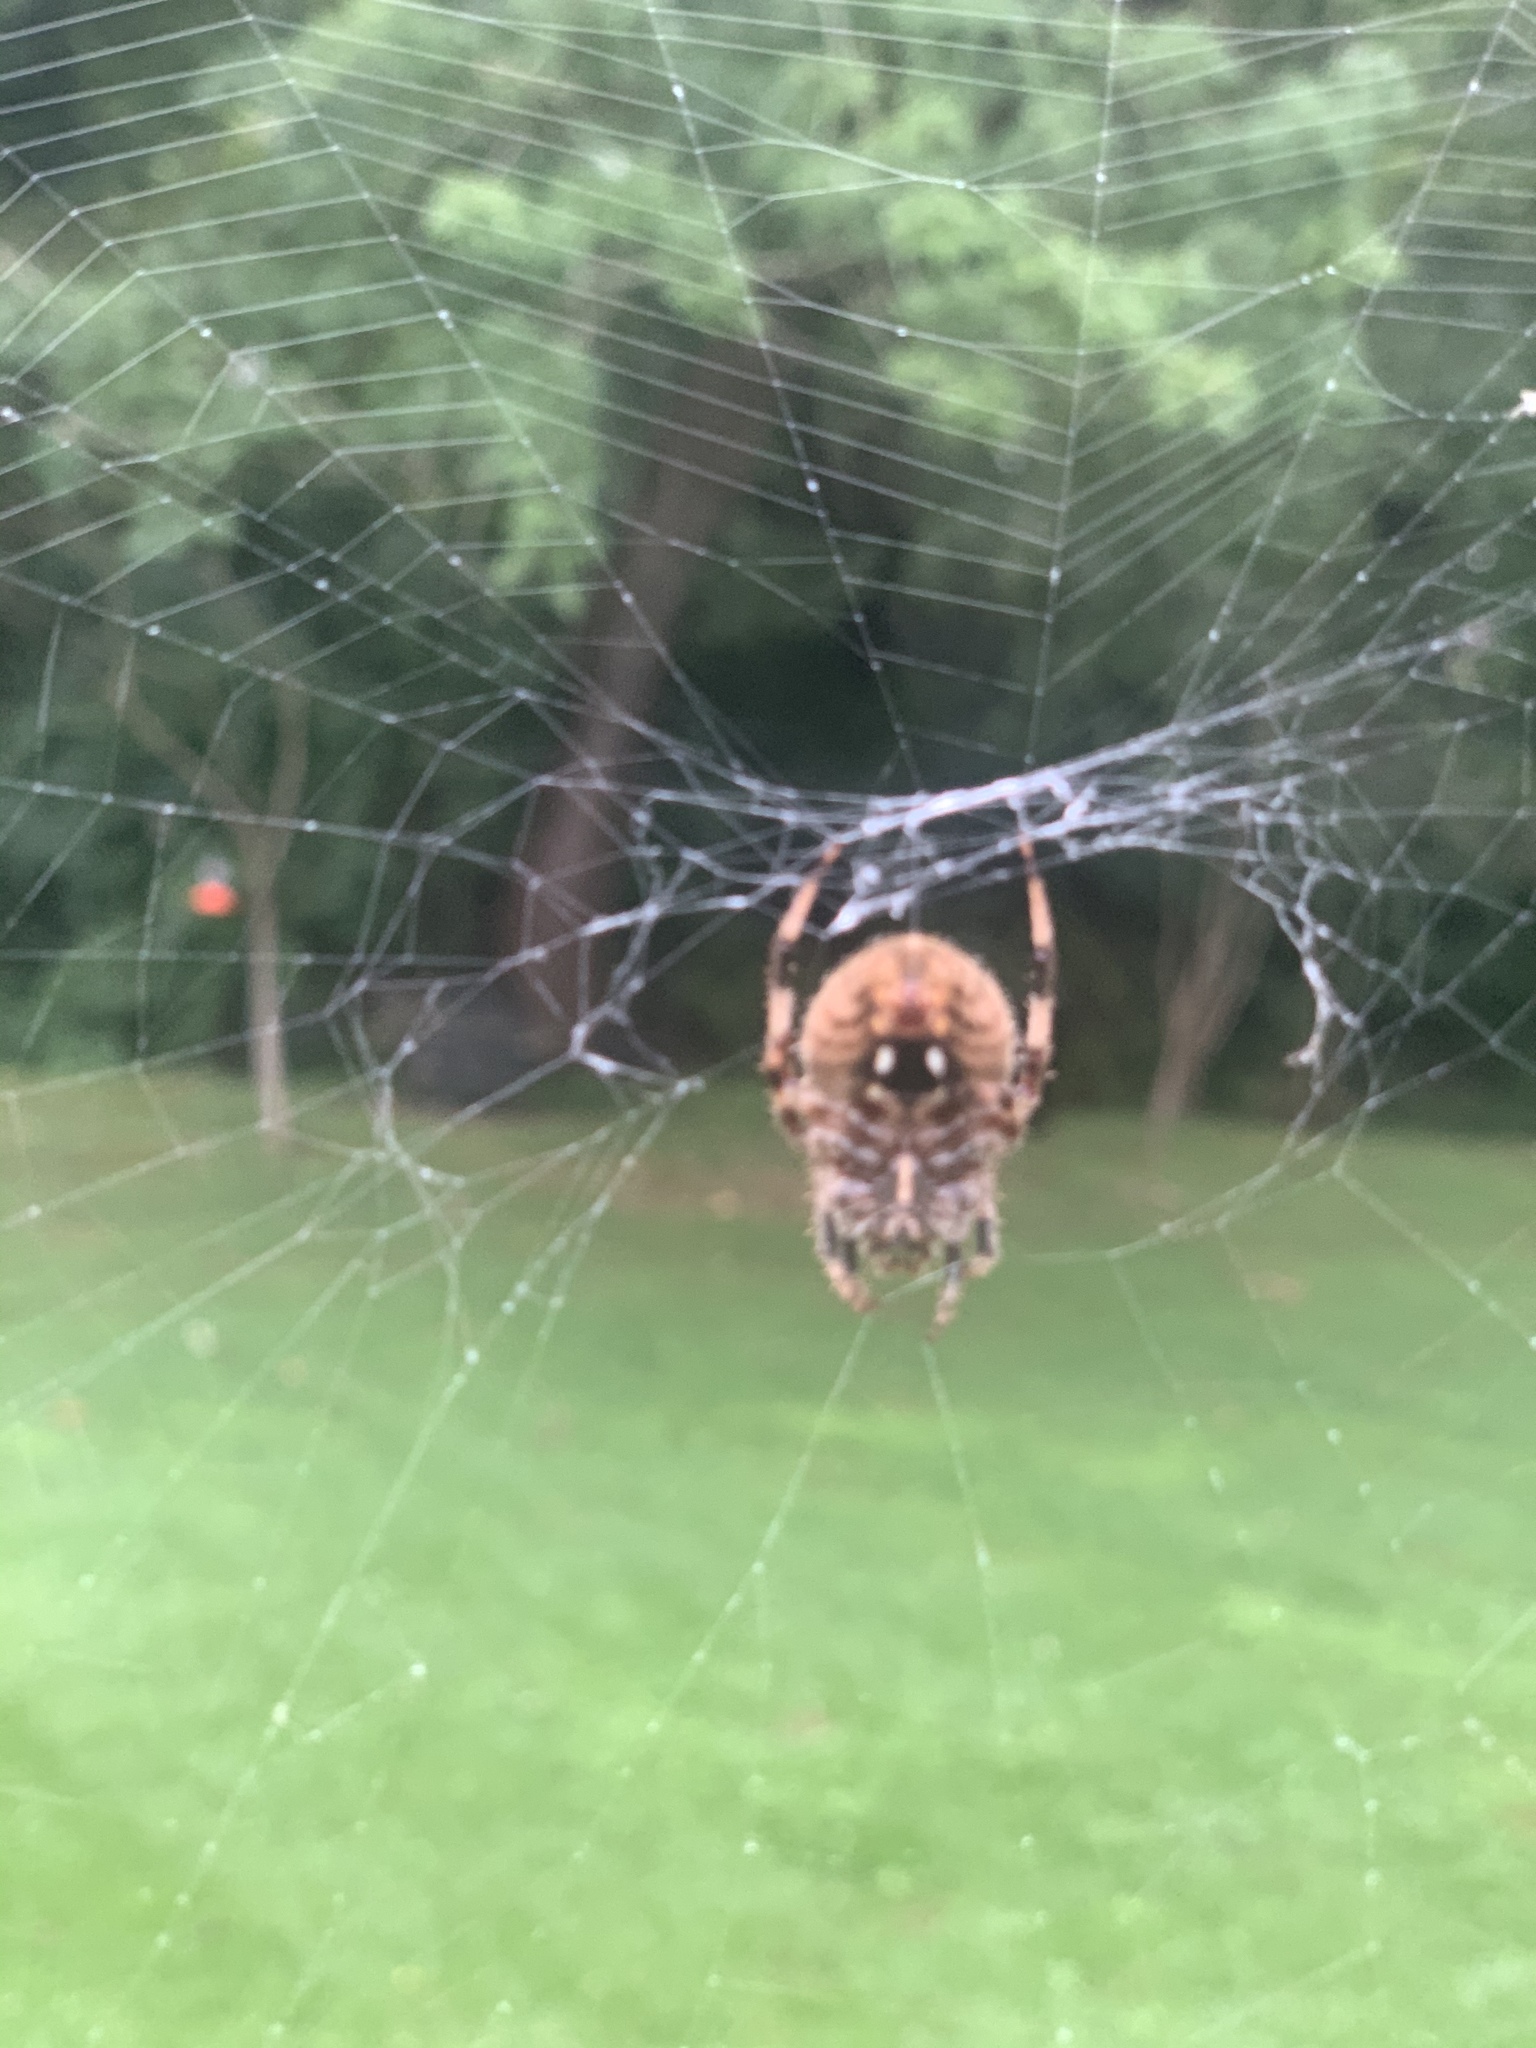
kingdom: Animalia
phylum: Arthropoda
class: Arachnida
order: Araneae
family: Araneidae
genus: Neoscona
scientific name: Neoscona crucifera
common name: Spotted orbweaver
